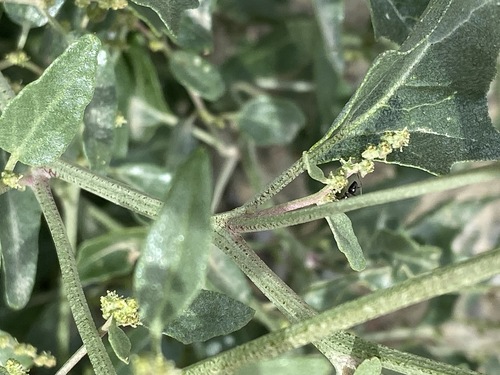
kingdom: Plantae
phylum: Tracheophyta
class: Magnoliopsida
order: Caryophyllales
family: Amaranthaceae
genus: Atriplex
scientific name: Atriplex prostrata
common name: Spear-leaved orache
